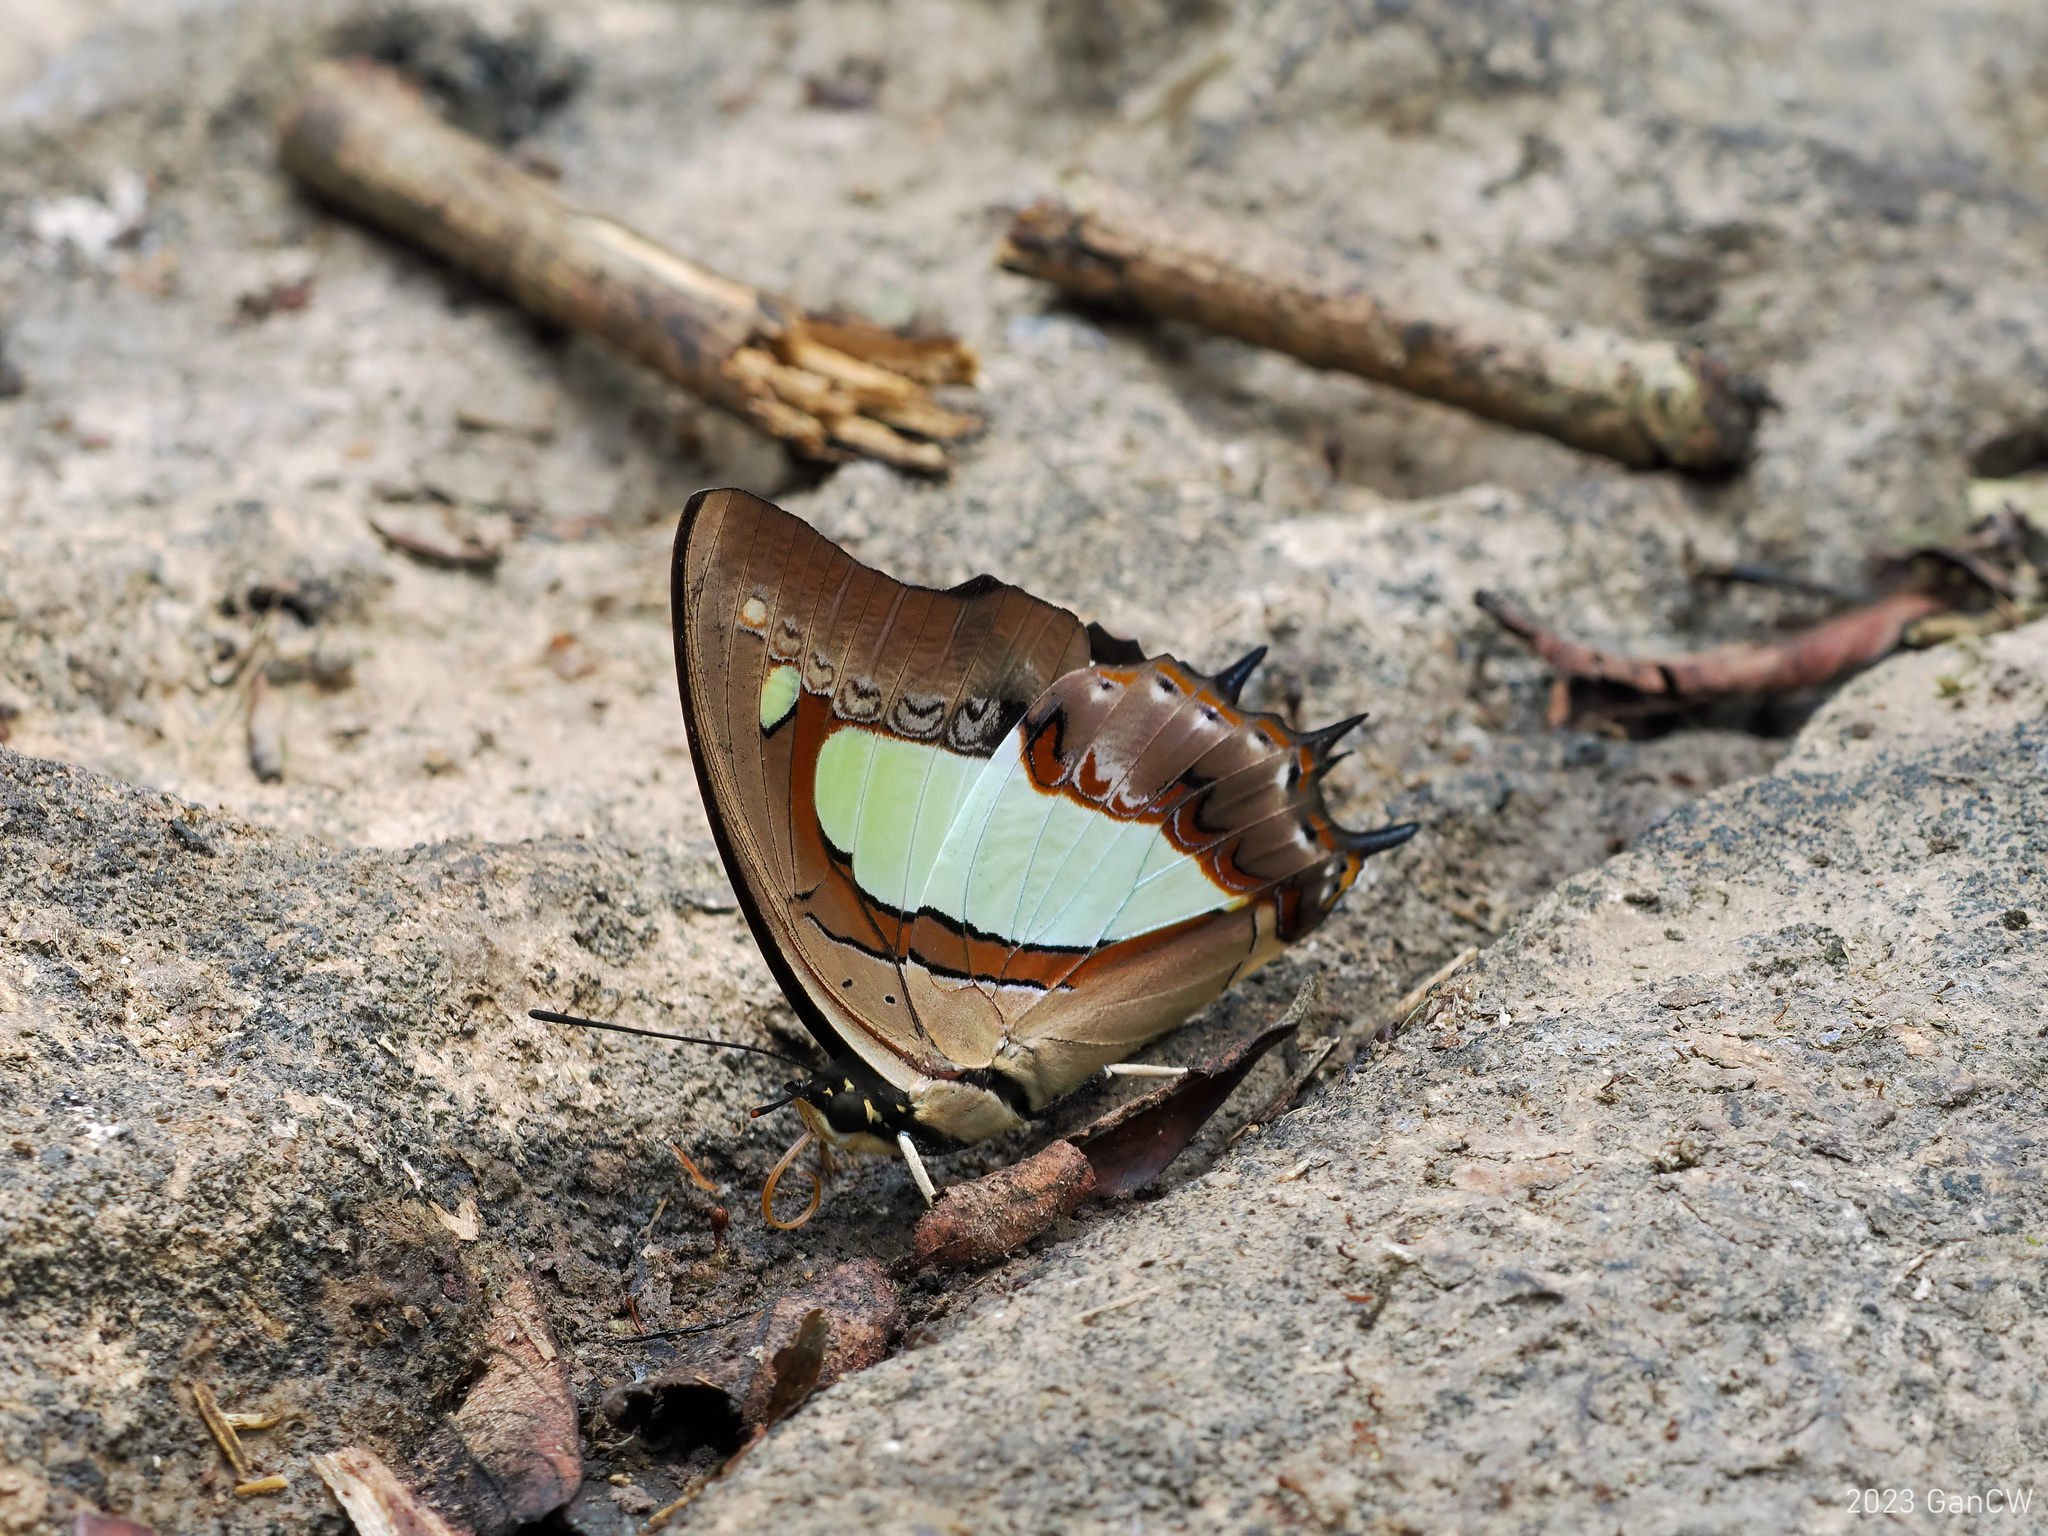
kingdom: Animalia
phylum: Arthropoda
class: Insecta
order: Lepidoptera
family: Nymphalidae
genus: Polyura
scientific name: Polyura athamas
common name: Common nawab
